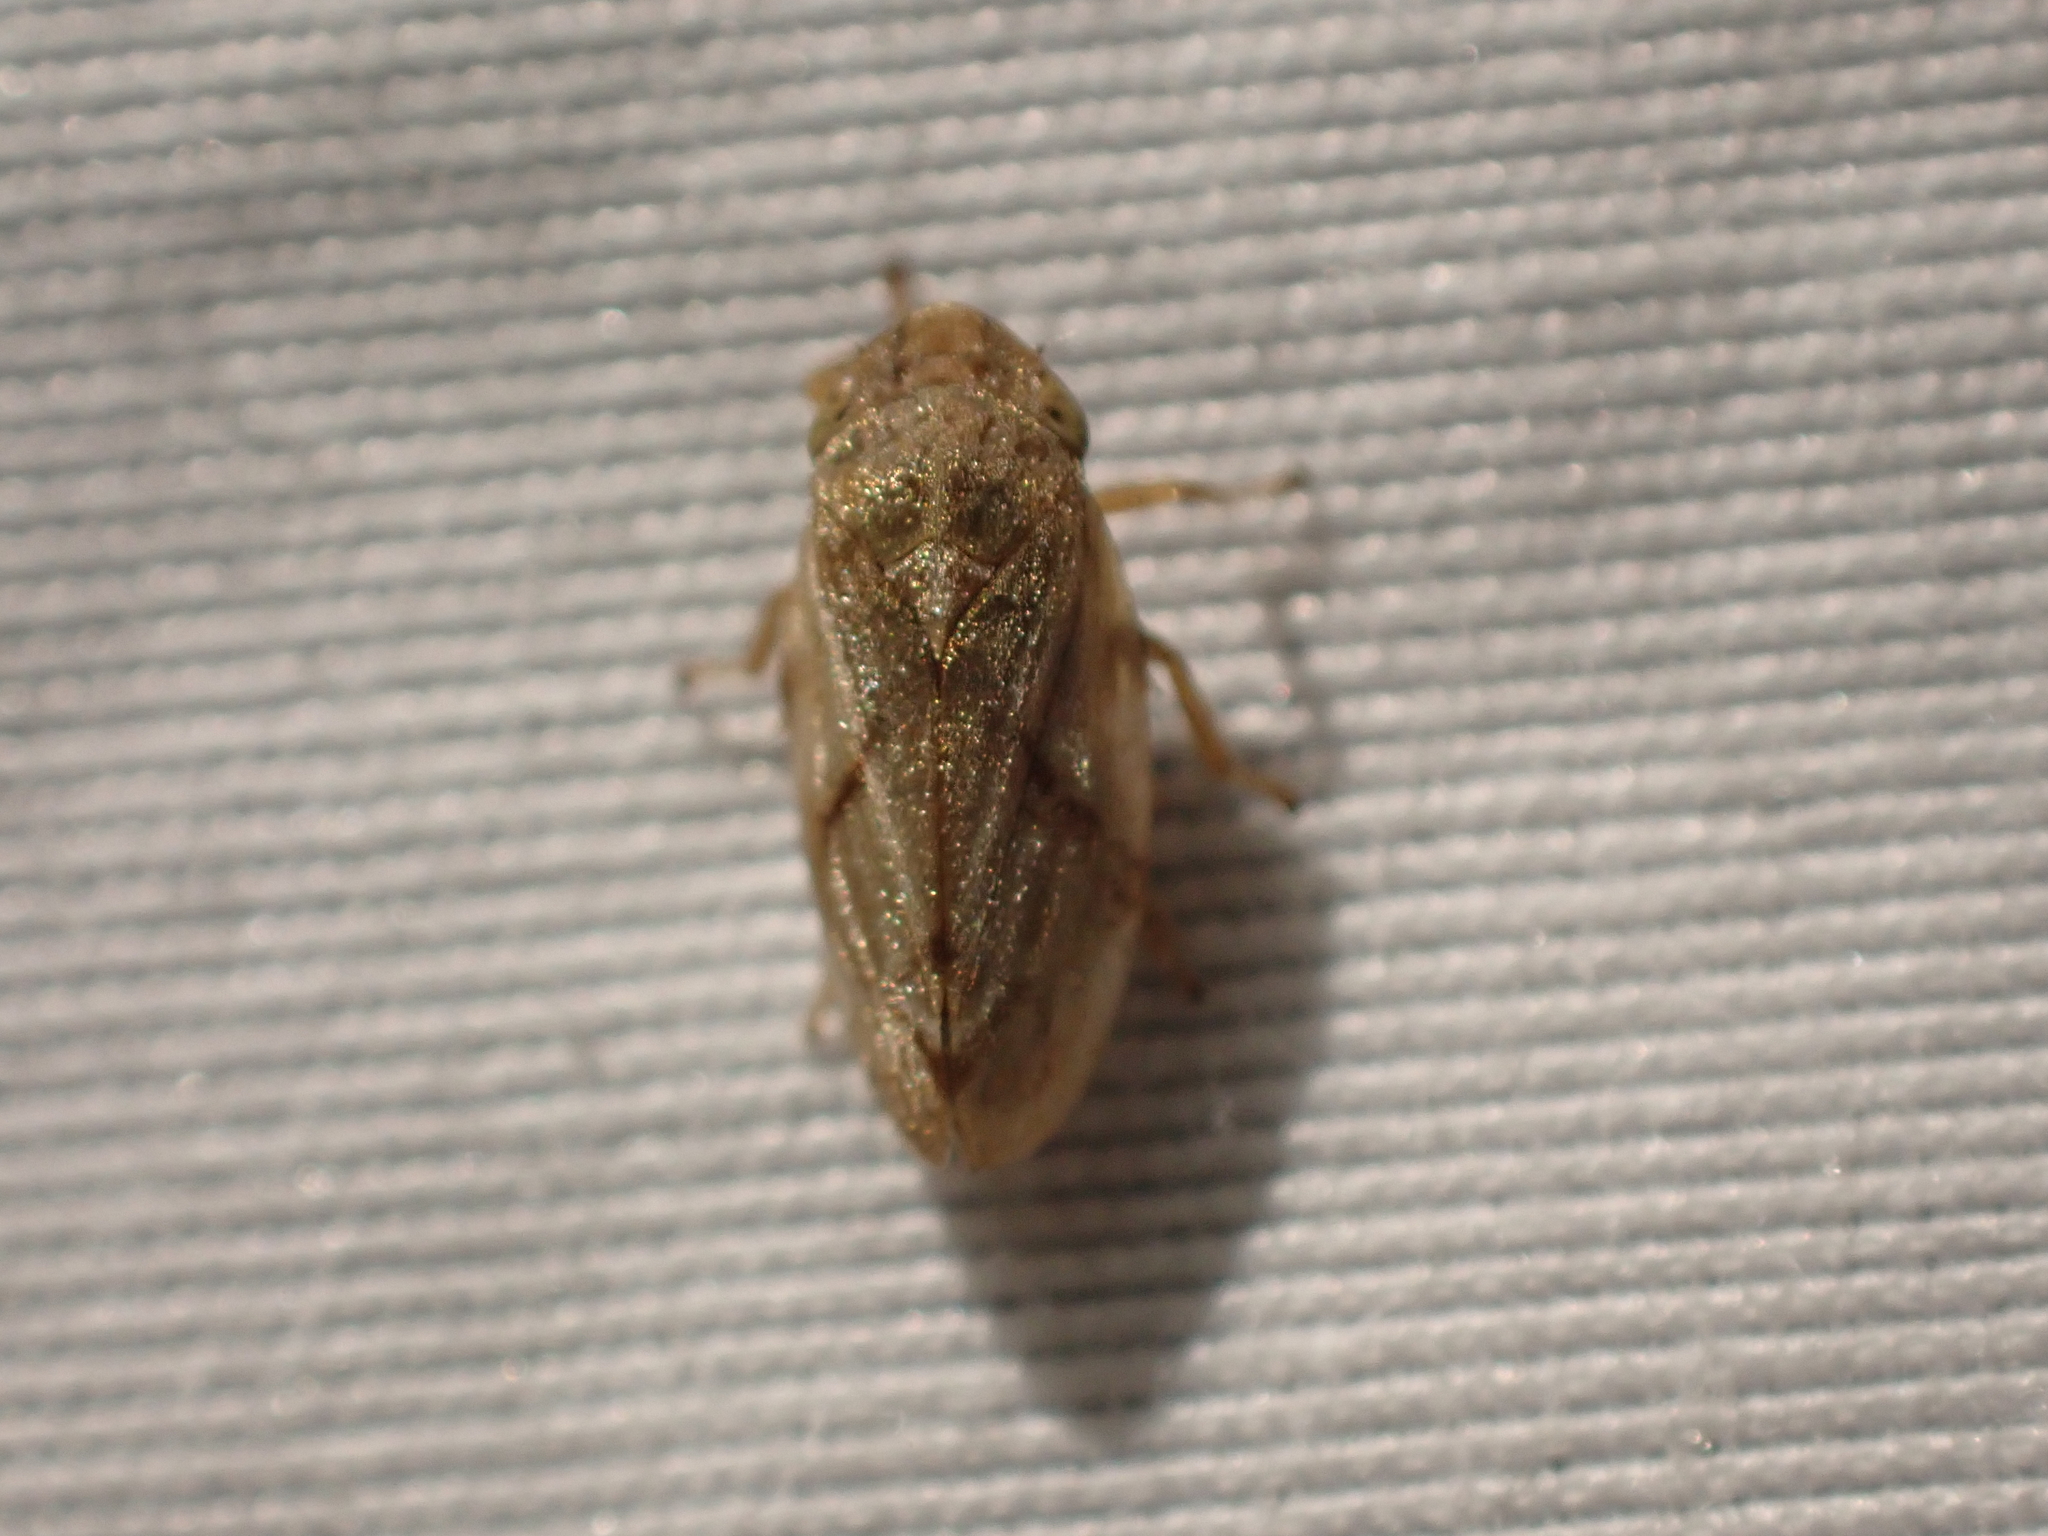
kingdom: Animalia
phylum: Arthropoda
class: Insecta
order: Hemiptera
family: Aphrophoridae
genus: Philaenus
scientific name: Philaenus spumarius
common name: Meadow spittlebug
